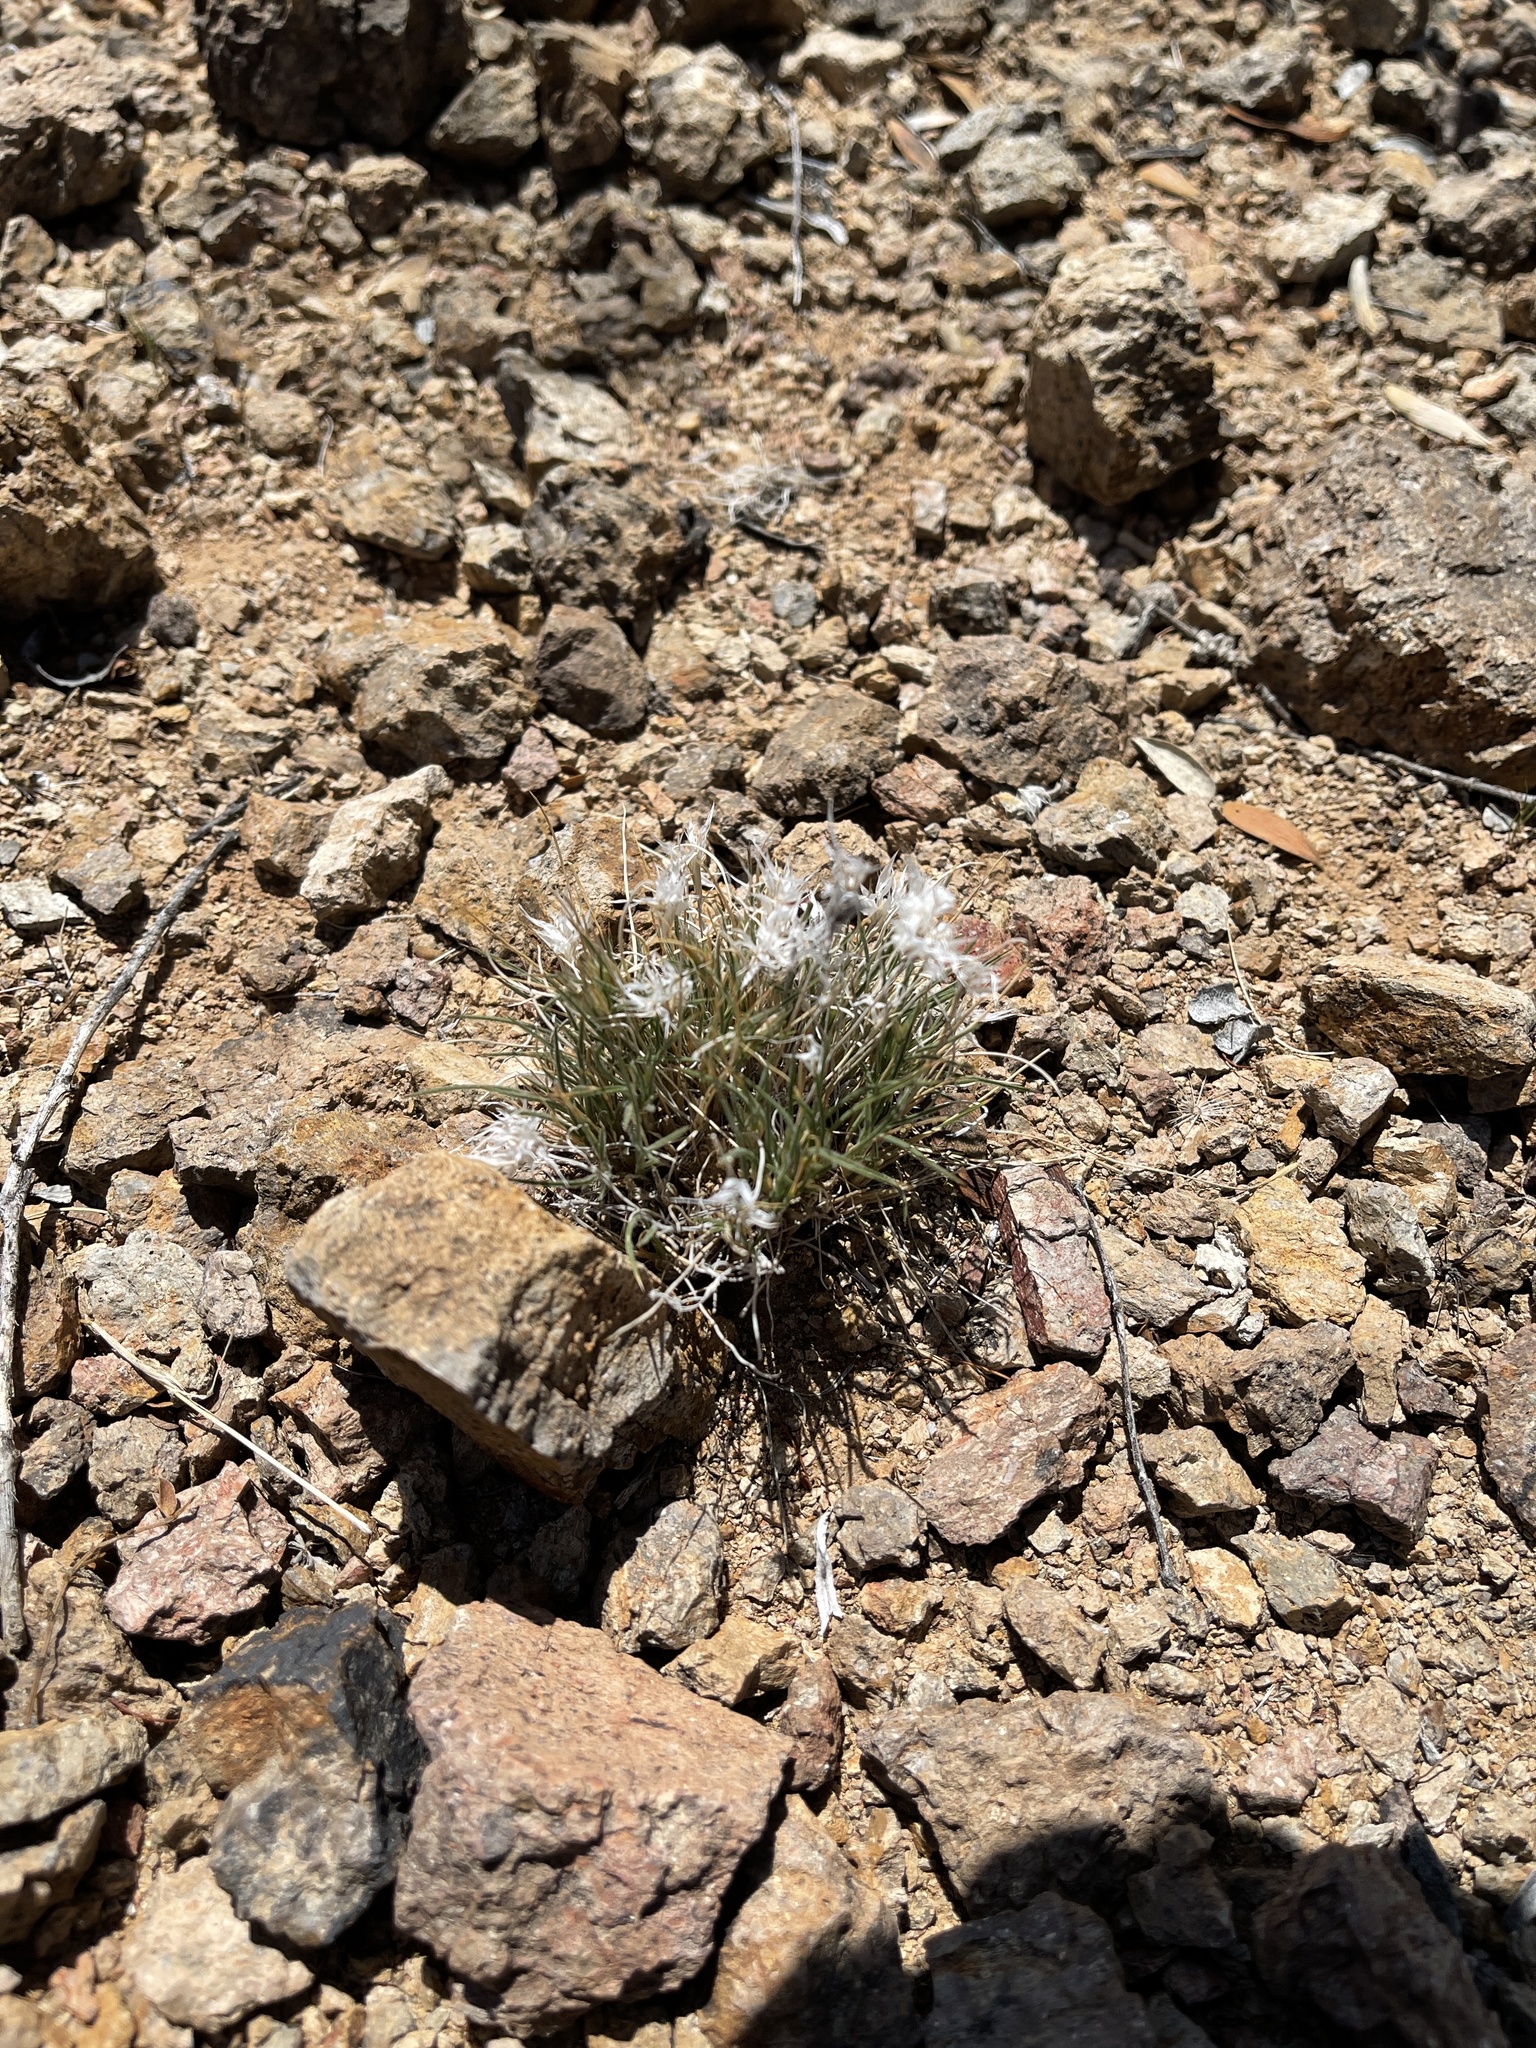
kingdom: Plantae
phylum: Tracheophyta
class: Liliopsida
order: Poales
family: Poaceae
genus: Dasyochloa
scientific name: Dasyochloa pulchella
